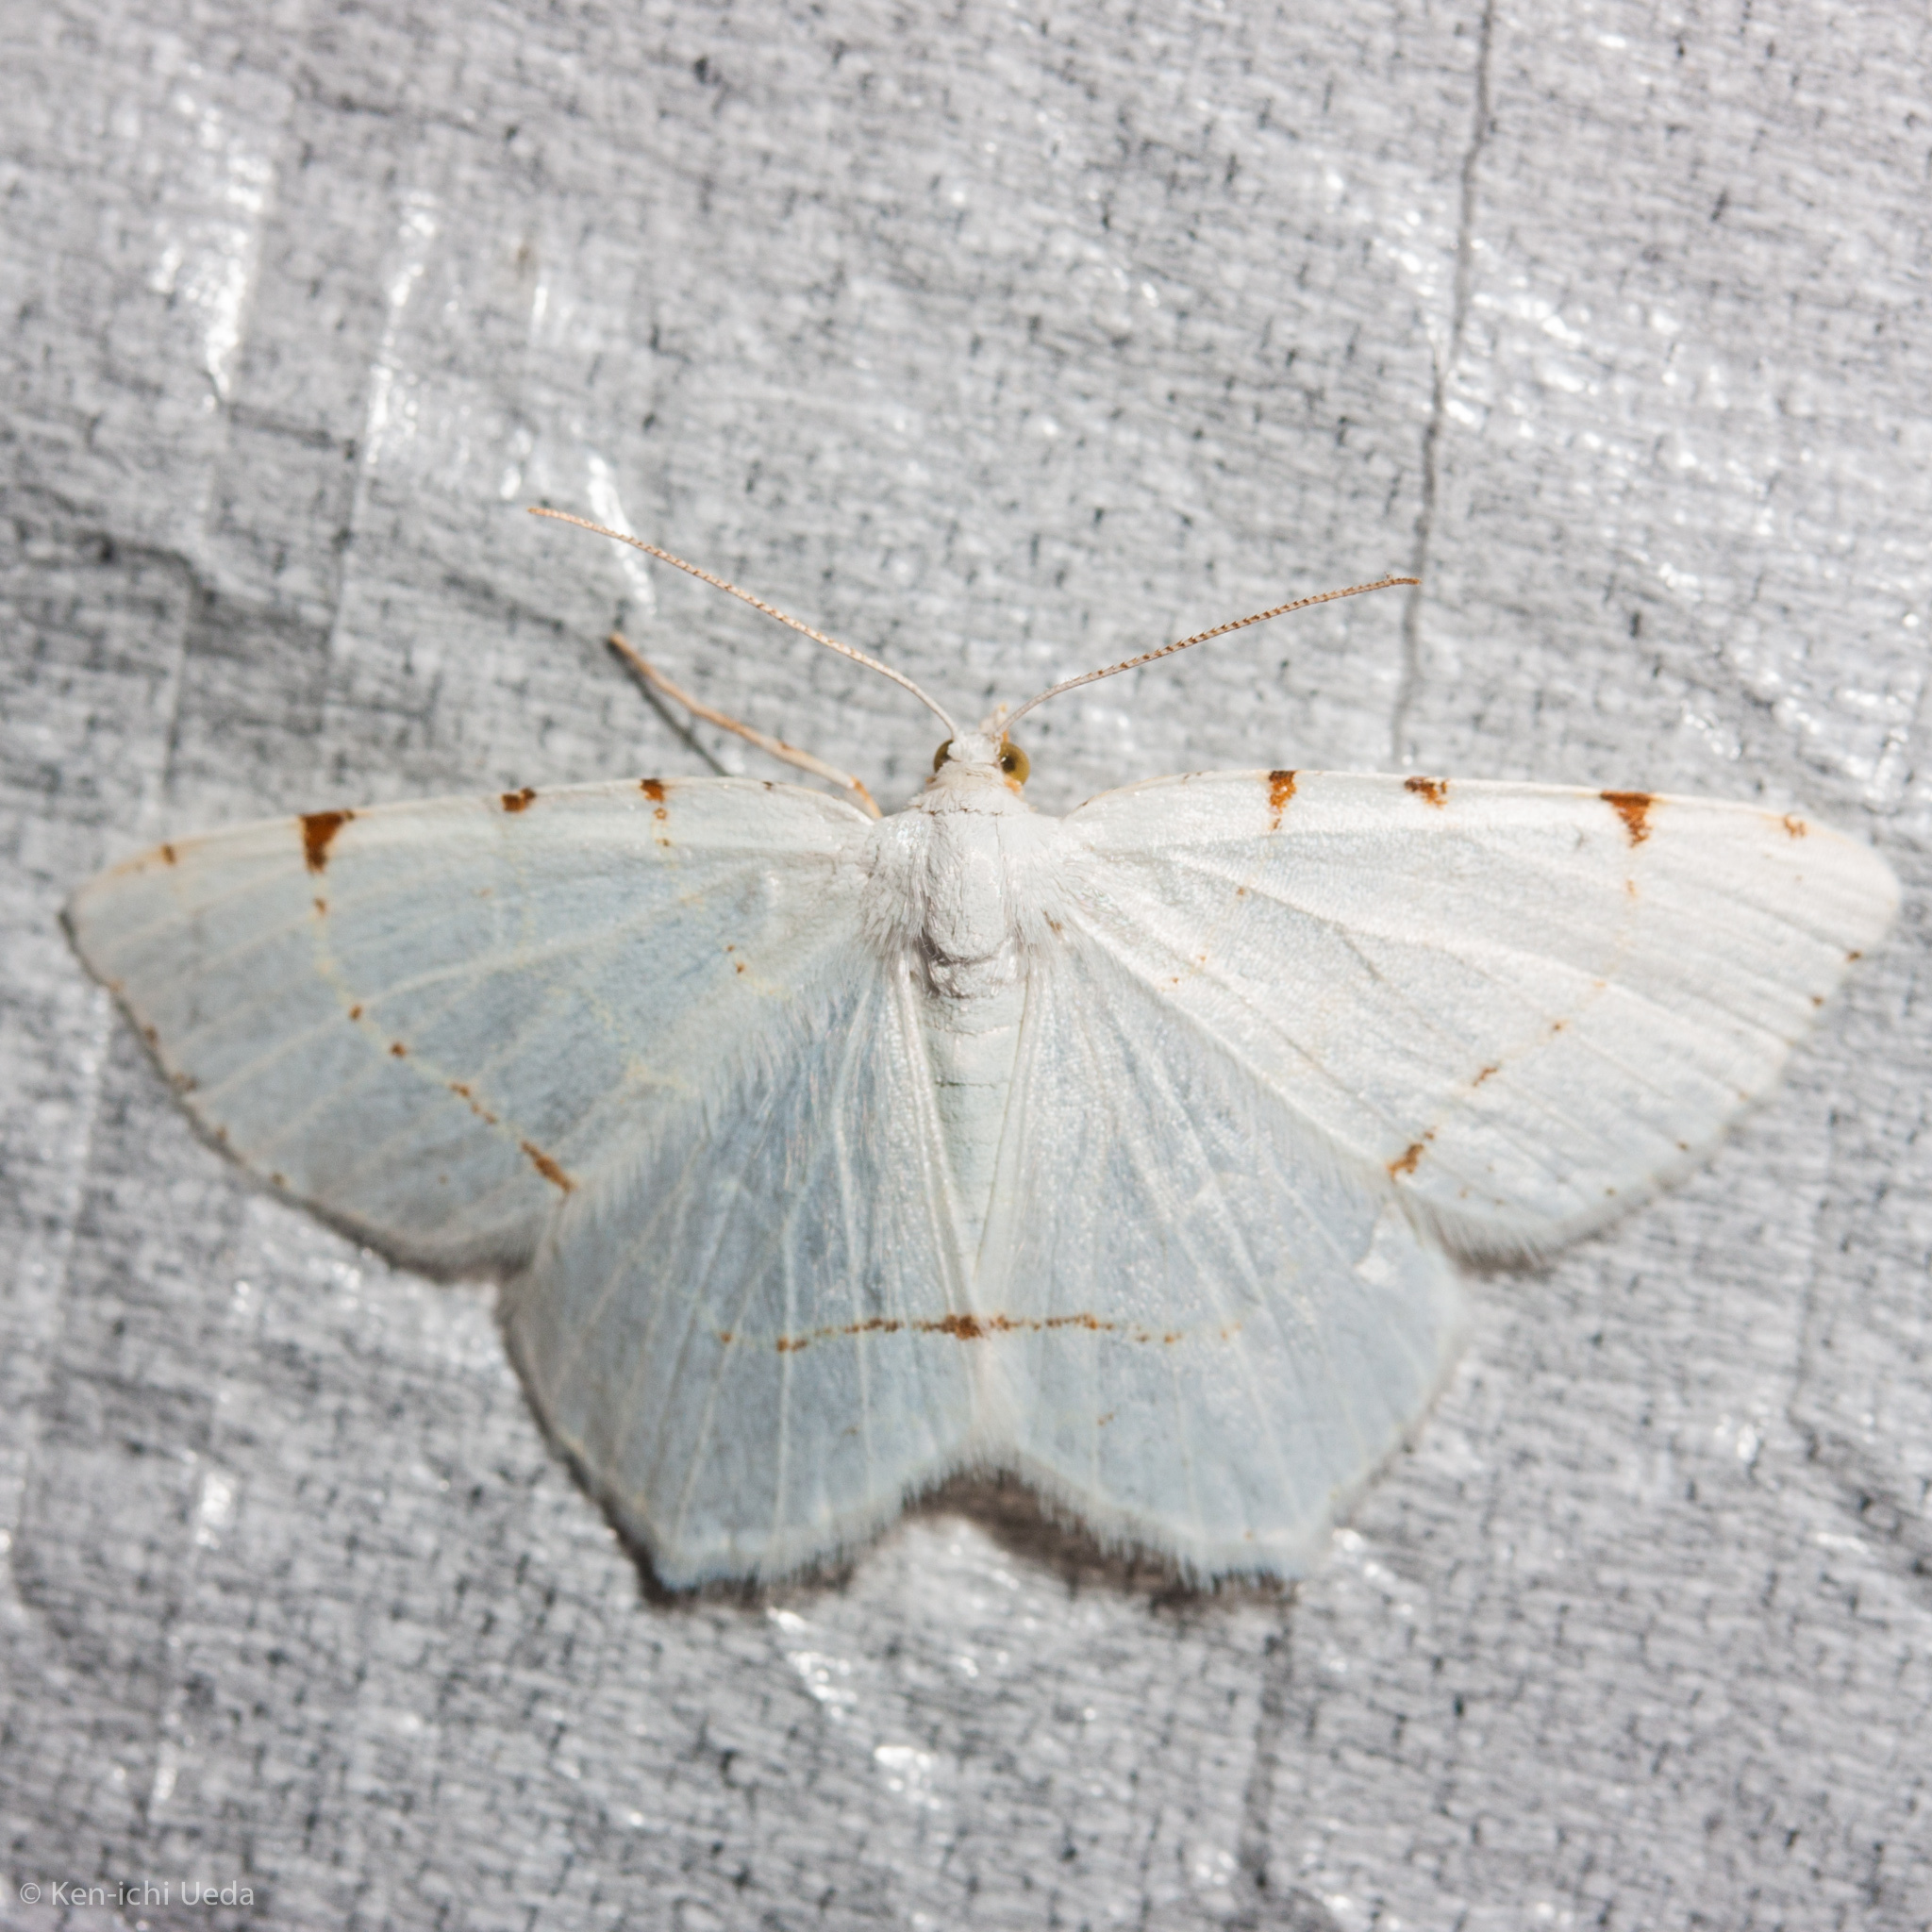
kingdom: Animalia
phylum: Arthropoda
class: Insecta
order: Lepidoptera
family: Geometridae
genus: Macaria
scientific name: Macaria pustularia
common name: Lesser maple spanworm moth
